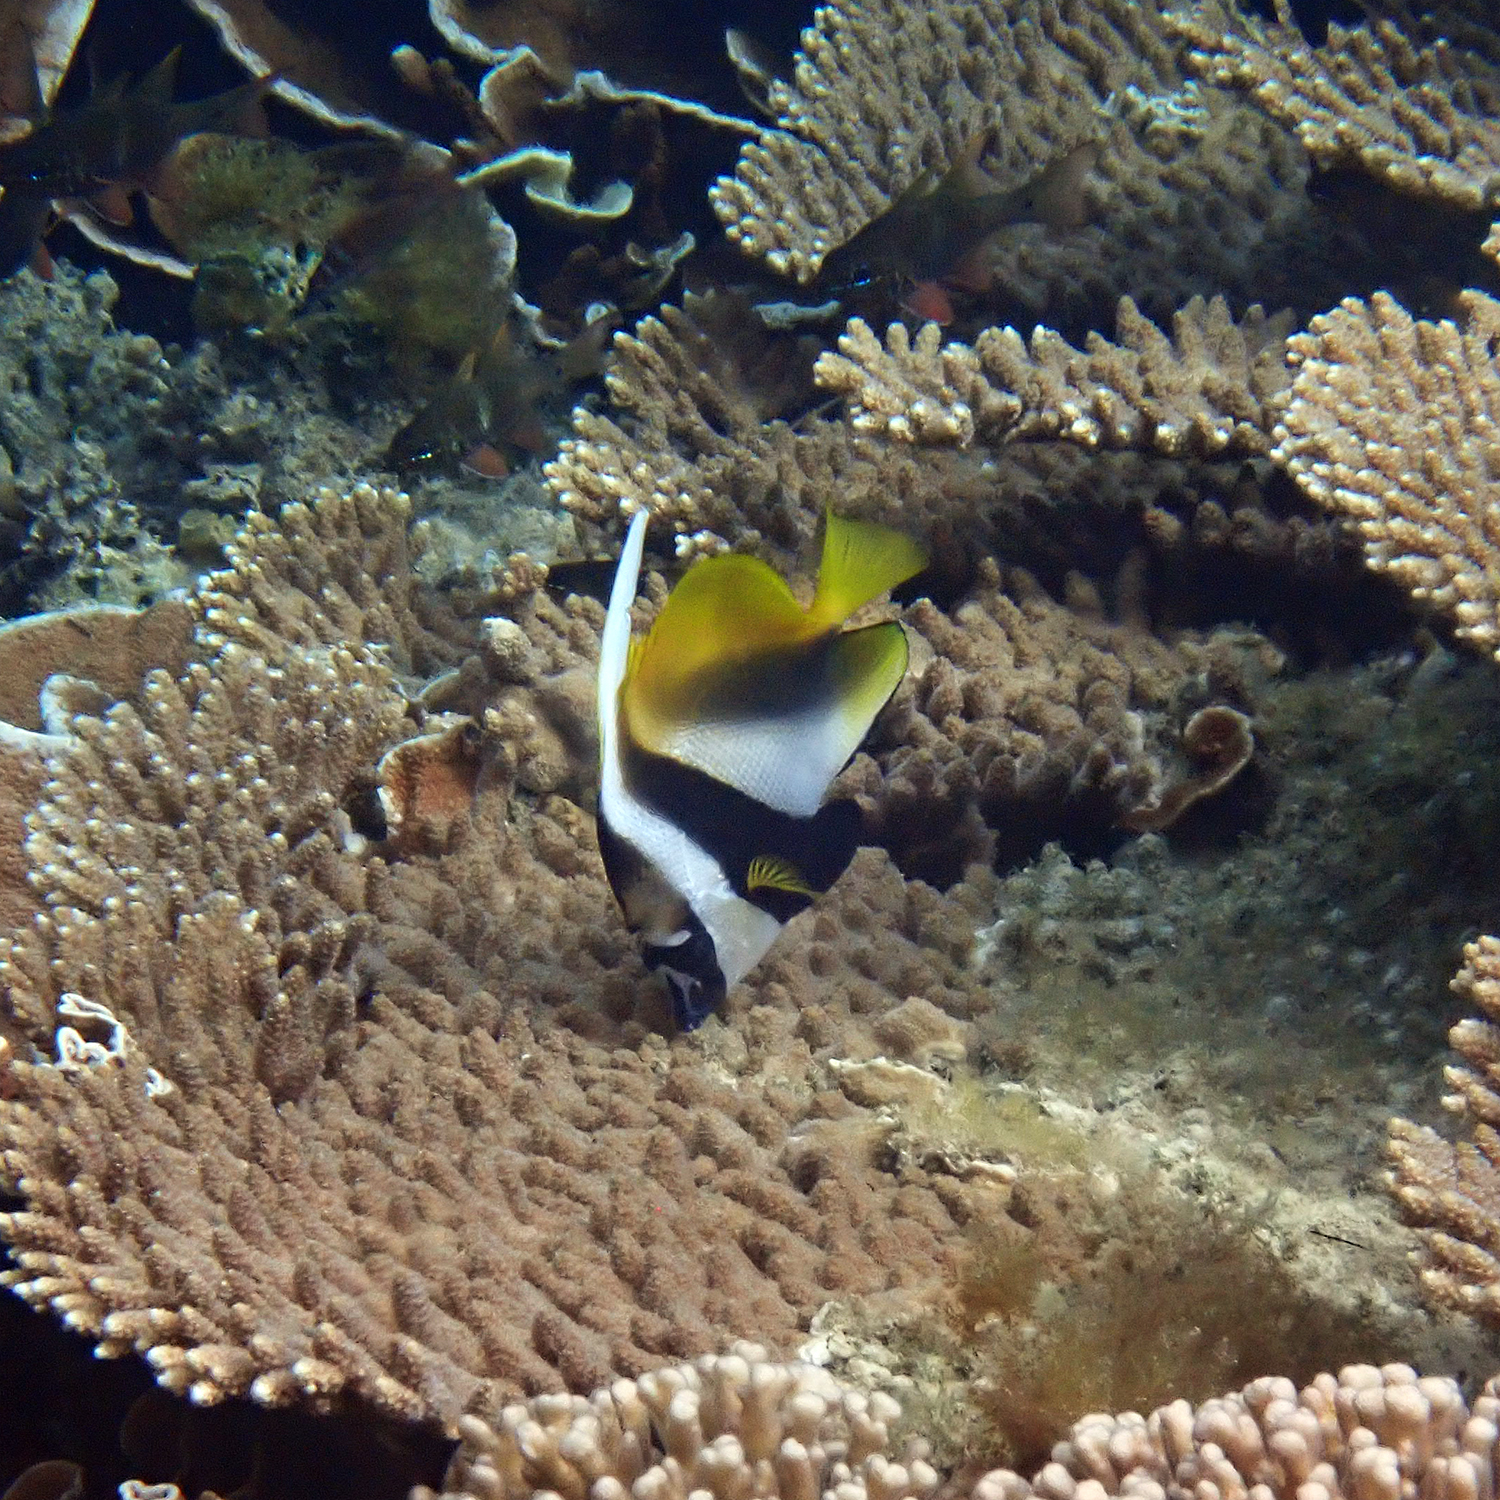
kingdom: Animalia
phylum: Chordata
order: Perciformes
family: Chaetodontidae
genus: Heniochus
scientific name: Heniochus monoceros
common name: Masked bannerfish
